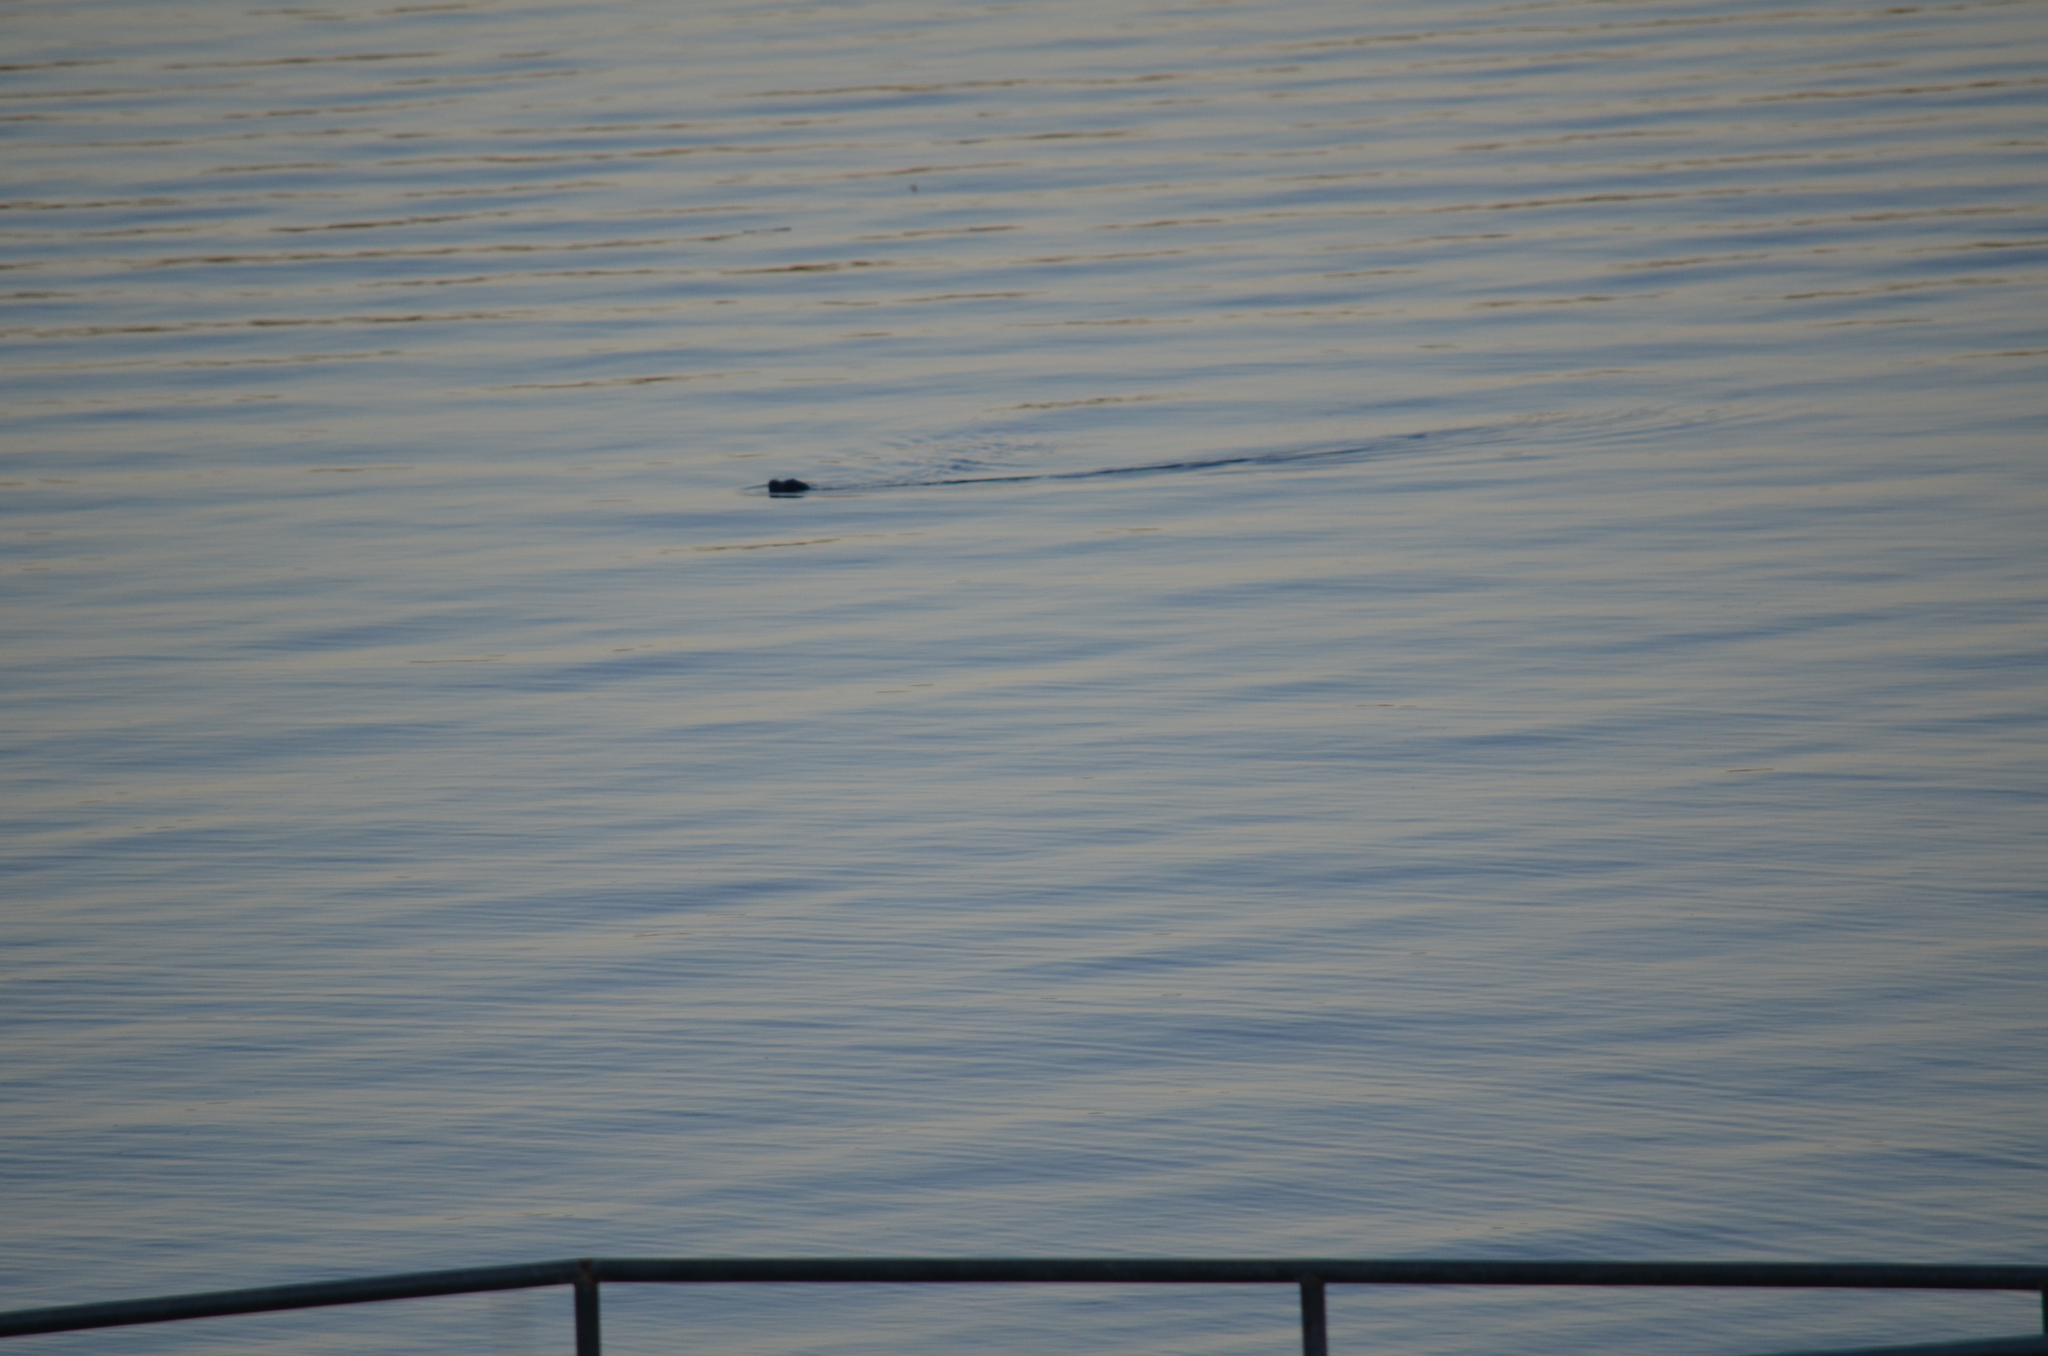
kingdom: Animalia
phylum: Chordata
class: Mammalia
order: Carnivora
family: Phocidae
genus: Phoca
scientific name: Phoca vitulina
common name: Harbor seal
